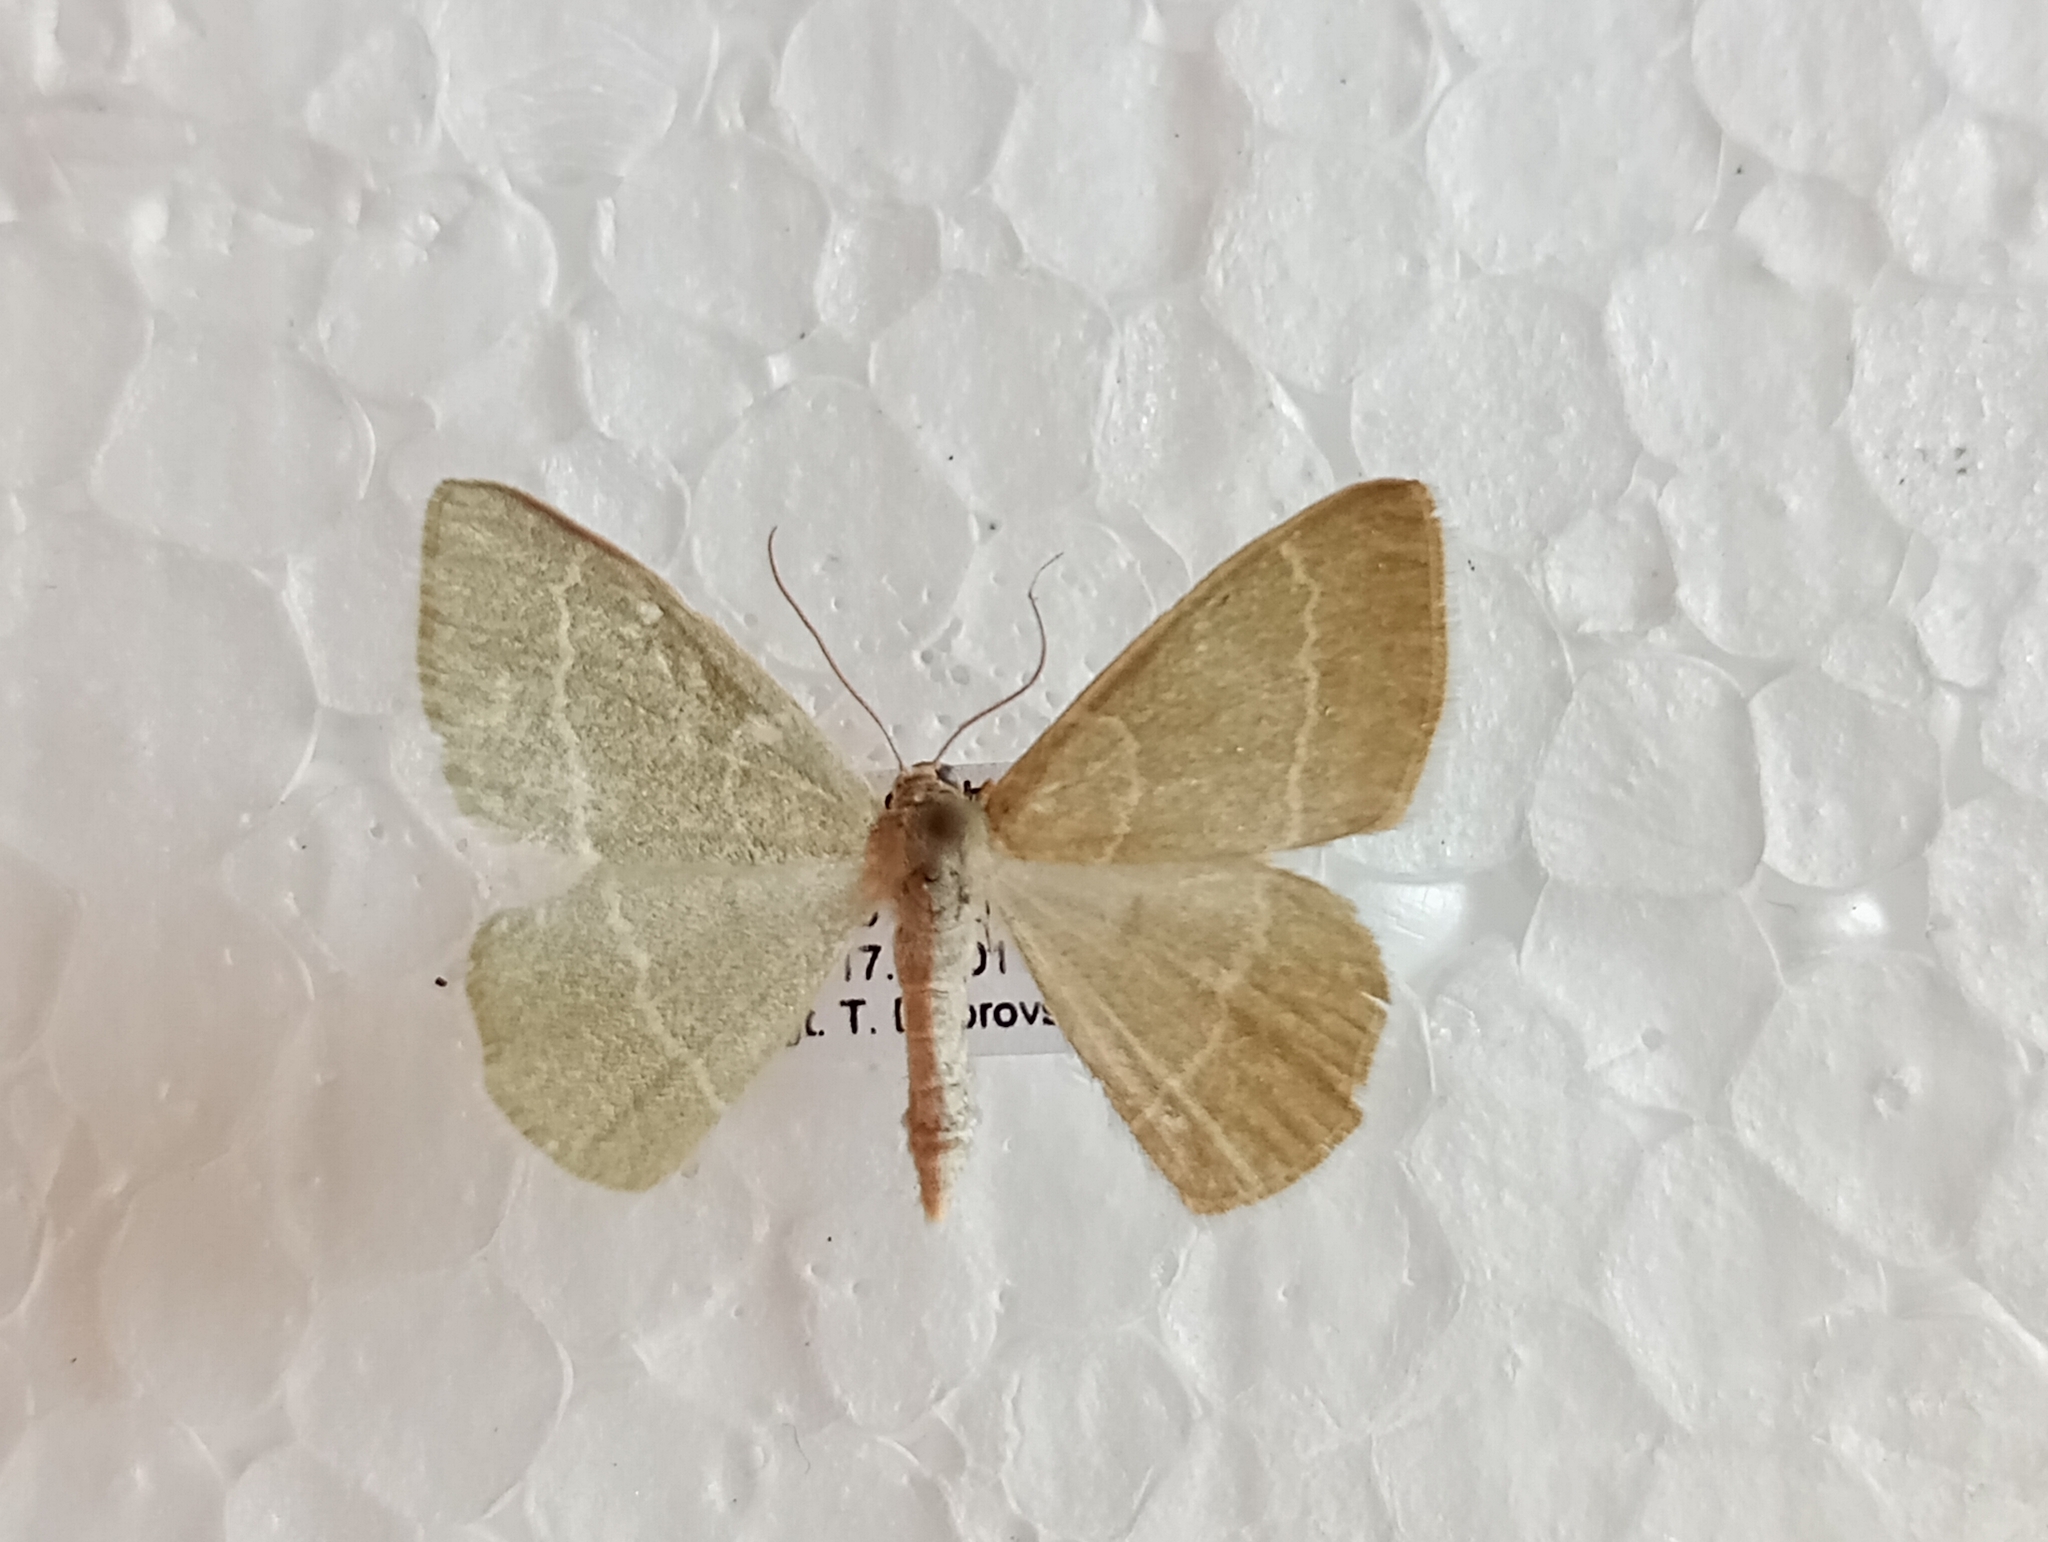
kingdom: Animalia
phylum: Arthropoda
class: Insecta
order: Lepidoptera
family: Geometridae
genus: Chlorissa
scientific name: Chlorissa cloraria
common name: Southern grass emerald
